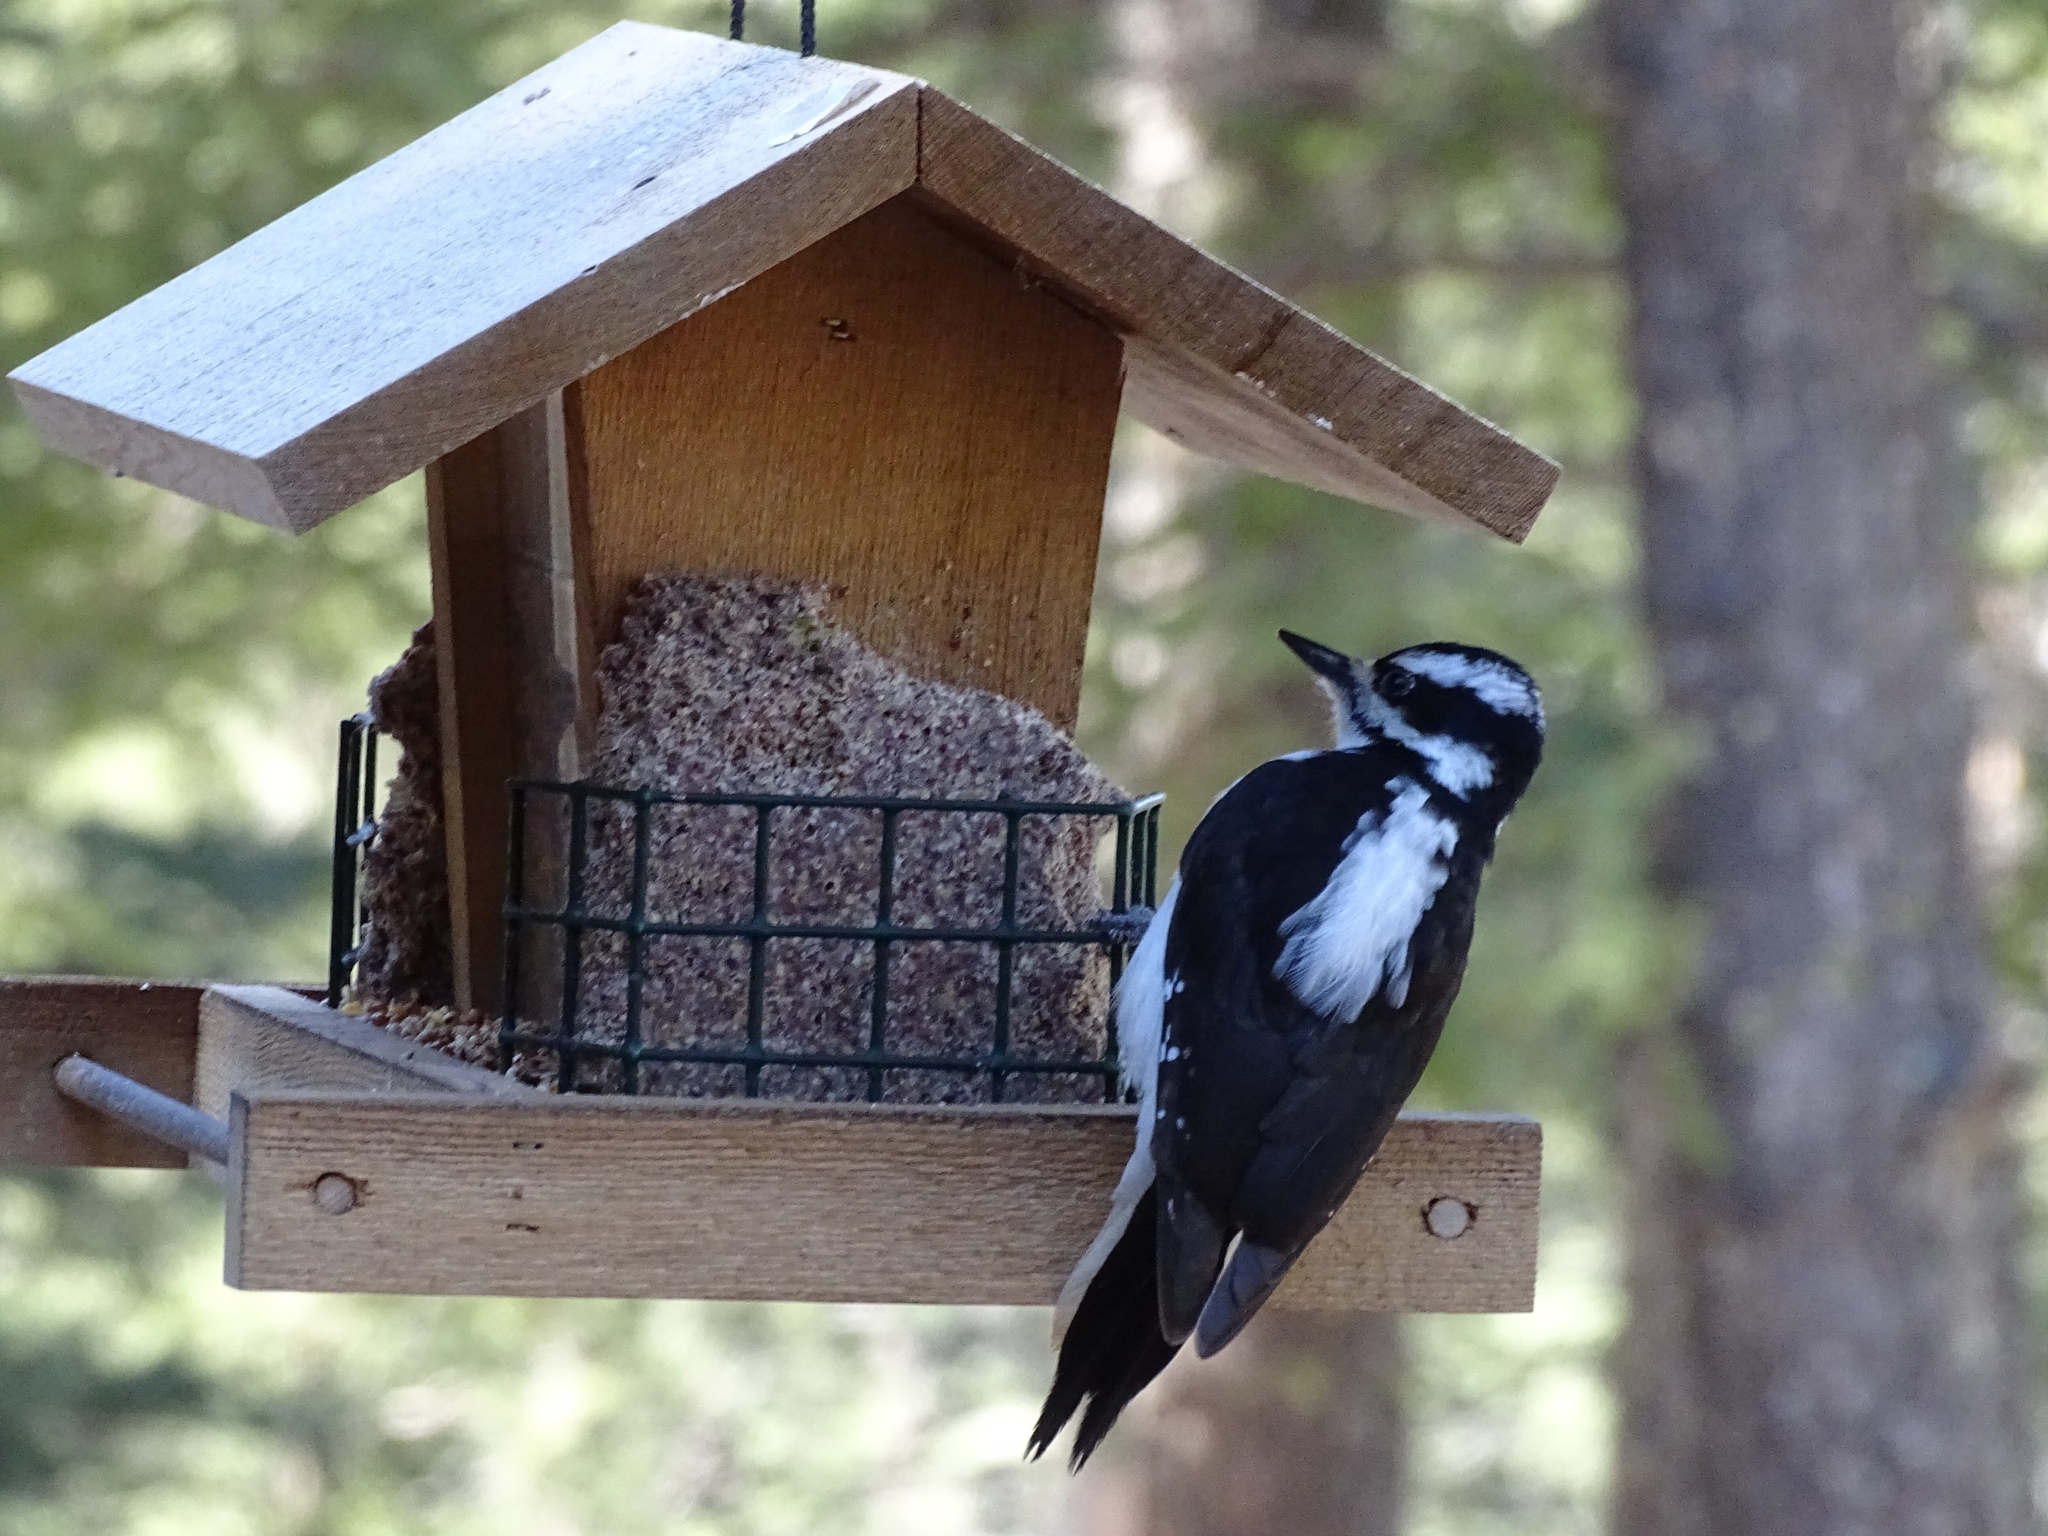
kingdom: Animalia
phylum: Chordata
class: Aves
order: Piciformes
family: Picidae
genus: Leuconotopicus
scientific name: Leuconotopicus villosus
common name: Hairy woodpecker
